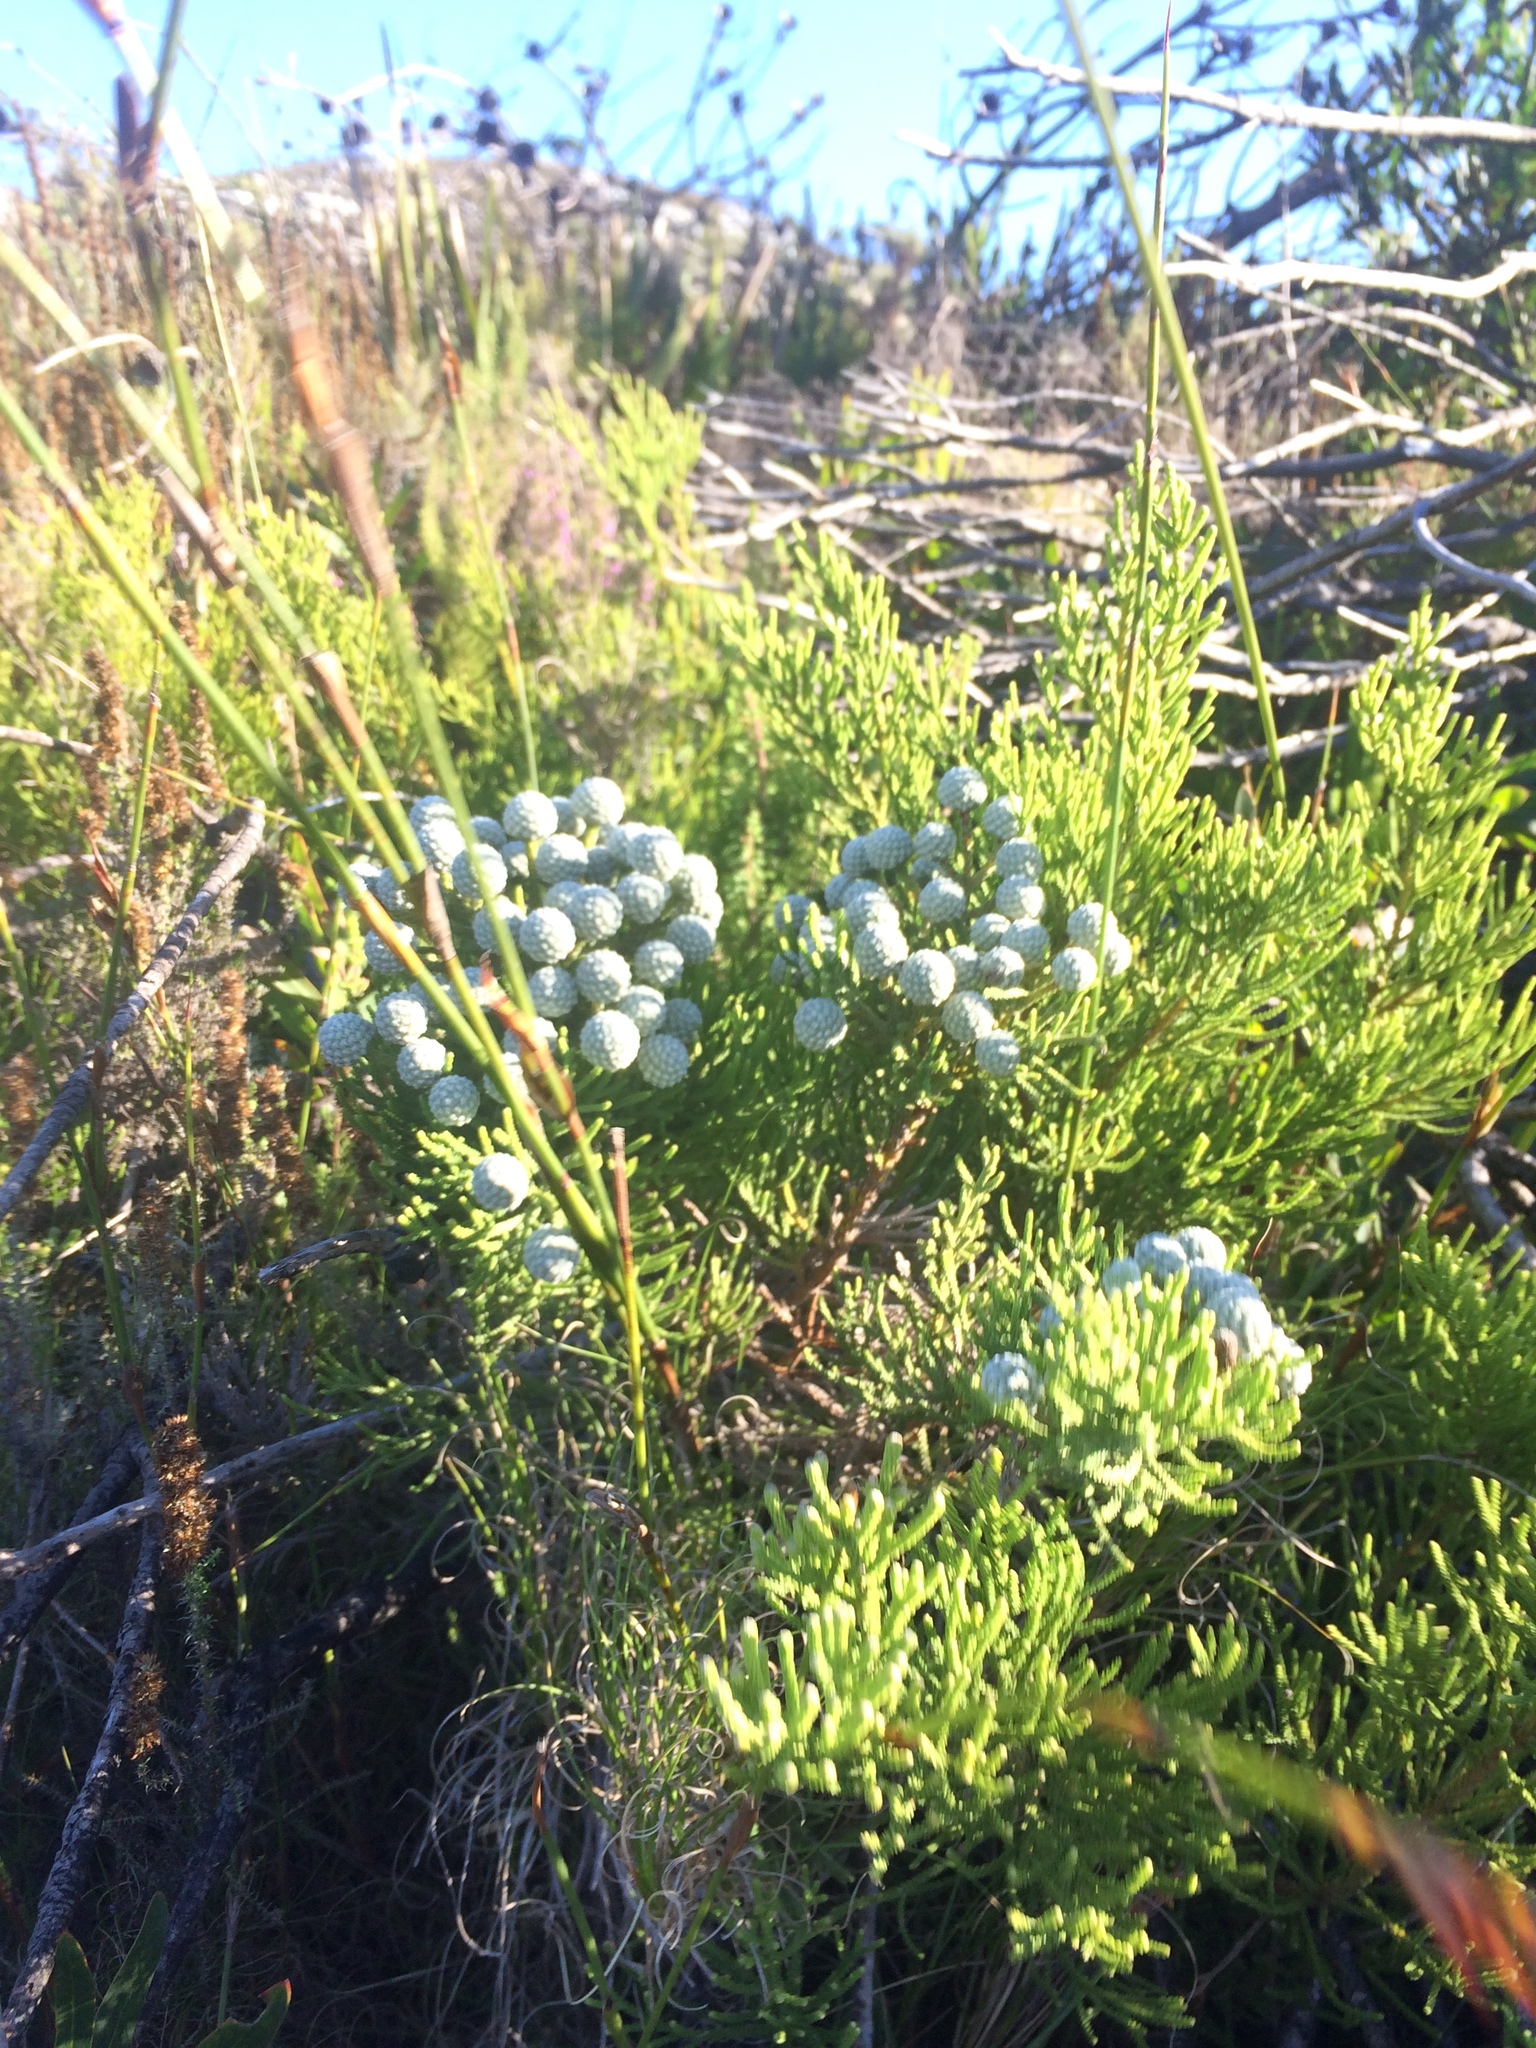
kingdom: Plantae
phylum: Tracheophyta
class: Magnoliopsida
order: Bruniales
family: Bruniaceae
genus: Brunia
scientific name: Brunia noduliflora
